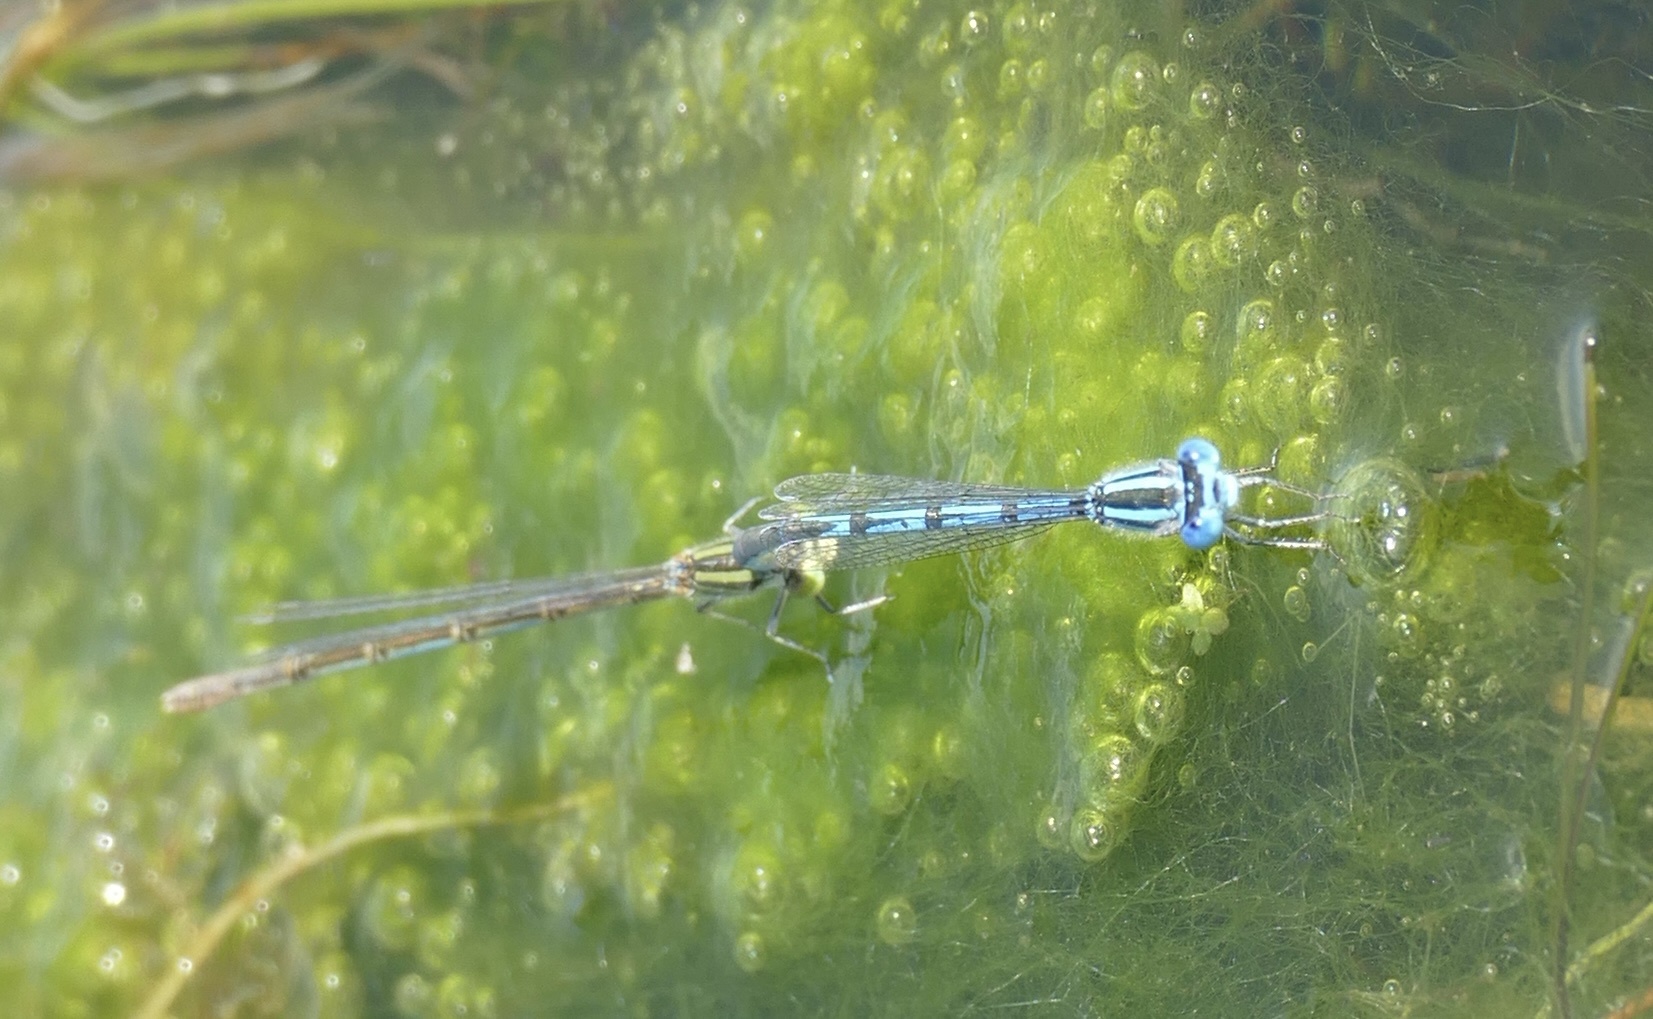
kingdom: Animalia
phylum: Arthropoda
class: Insecta
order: Odonata
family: Coenagrionidae
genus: Erythromma
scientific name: Erythromma lindenii
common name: Blue-eye
